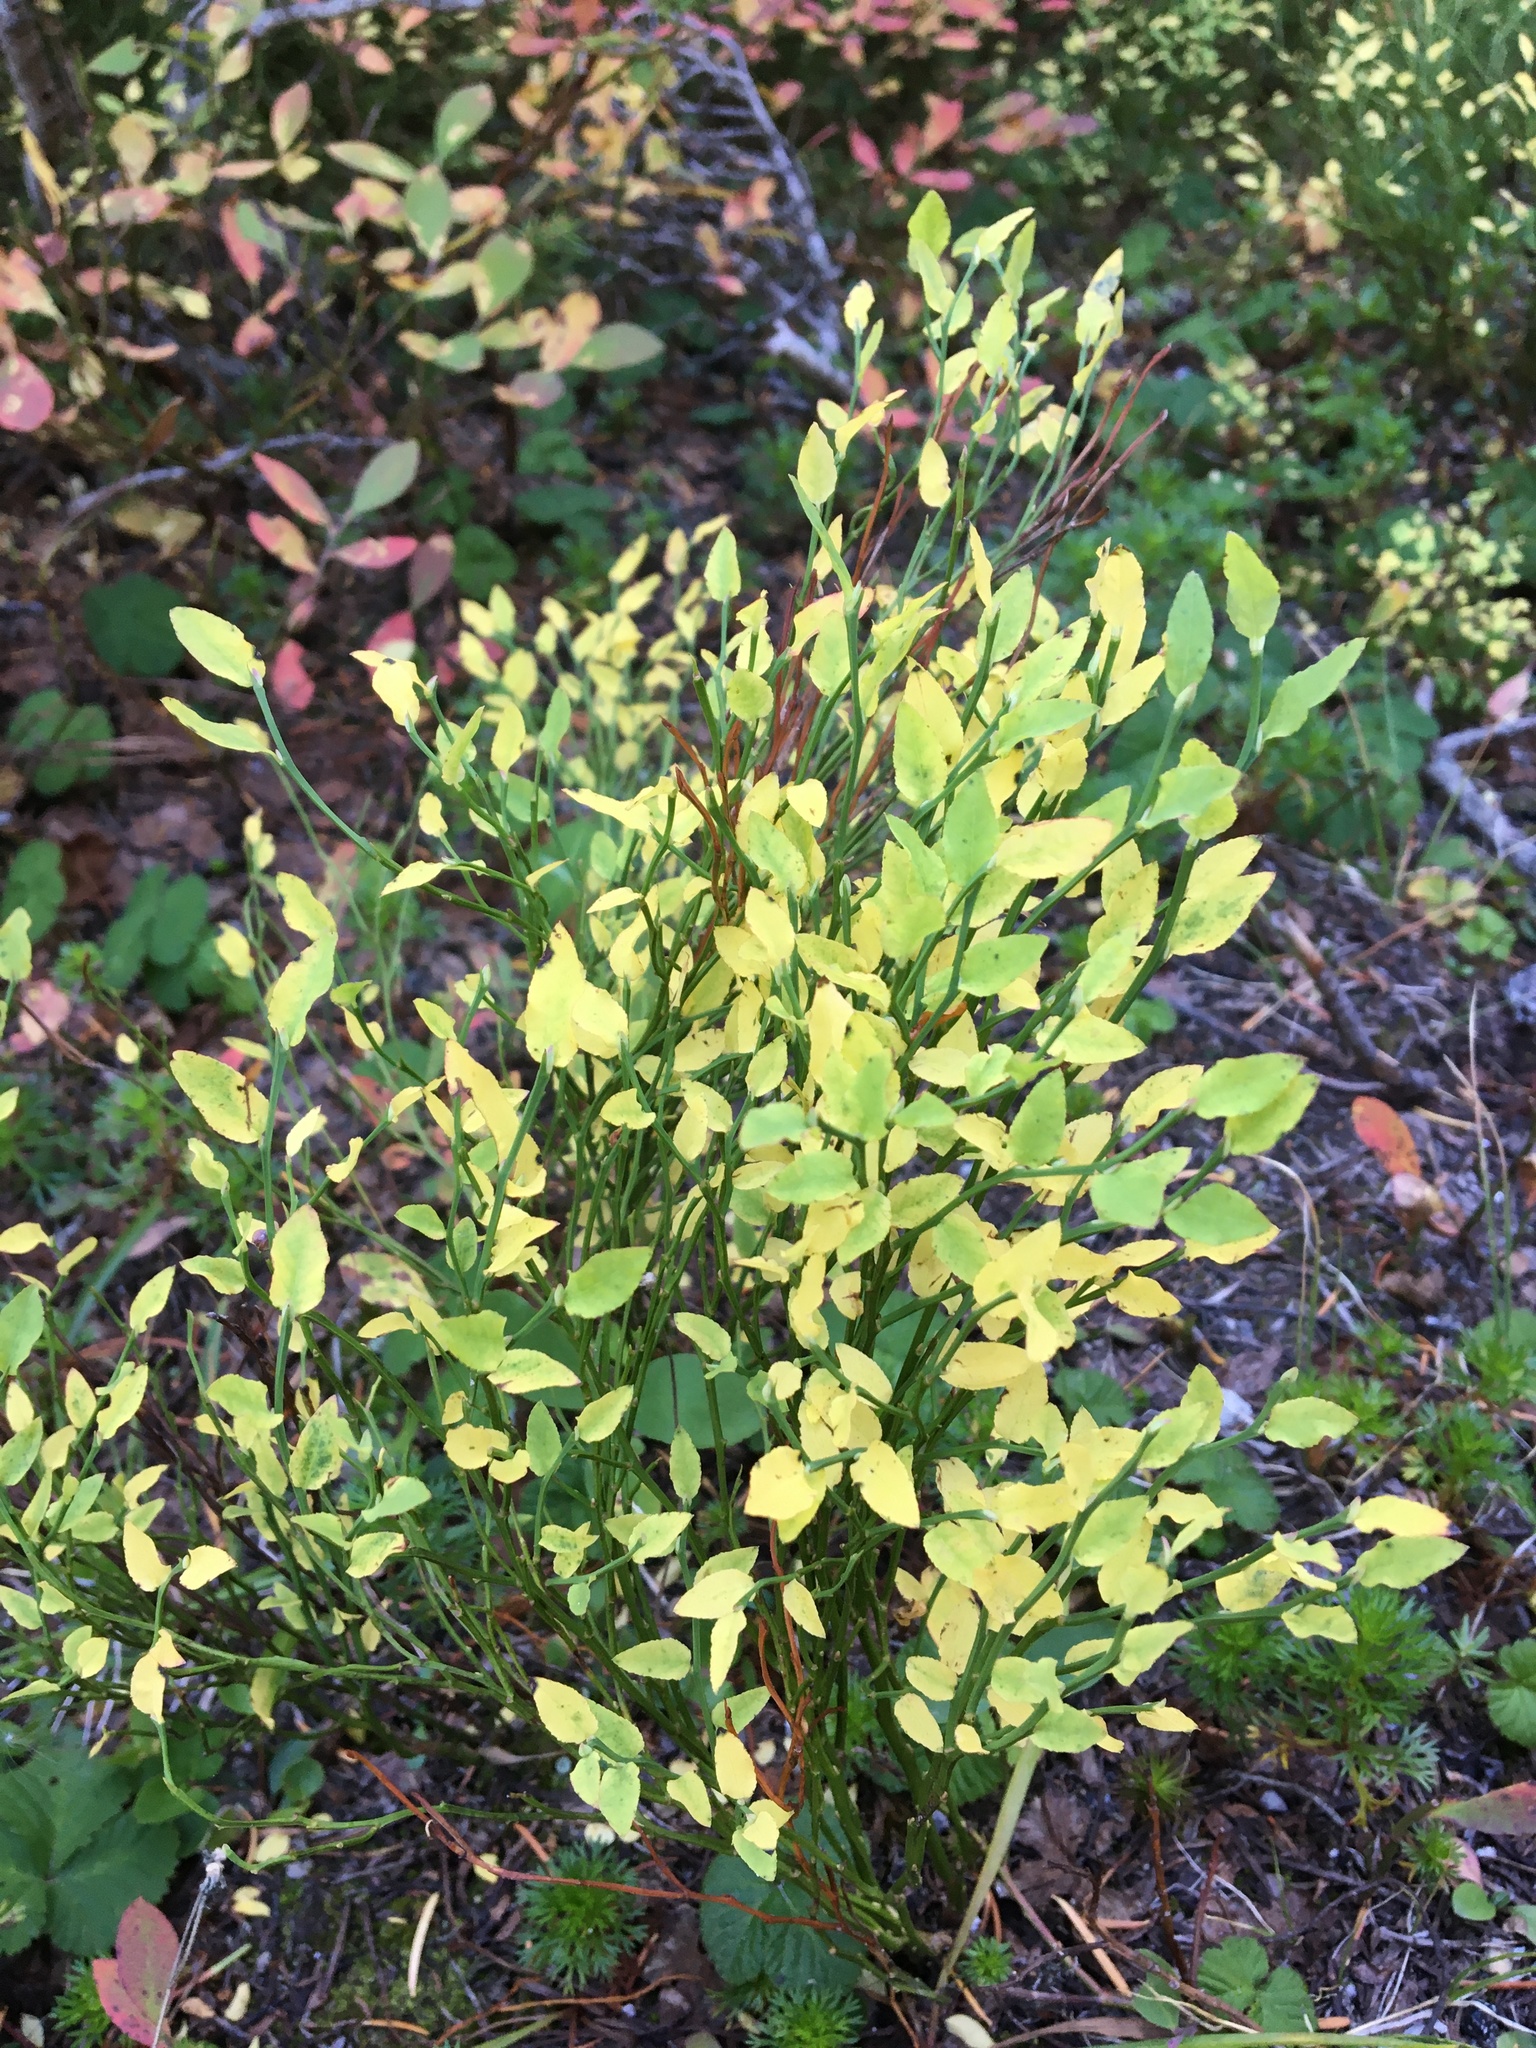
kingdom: Plantae
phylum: Tracheophyta
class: Magnoliopsida
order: Ericales
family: Ericaceae
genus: Vaccinium
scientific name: Vaccinium scoparium
